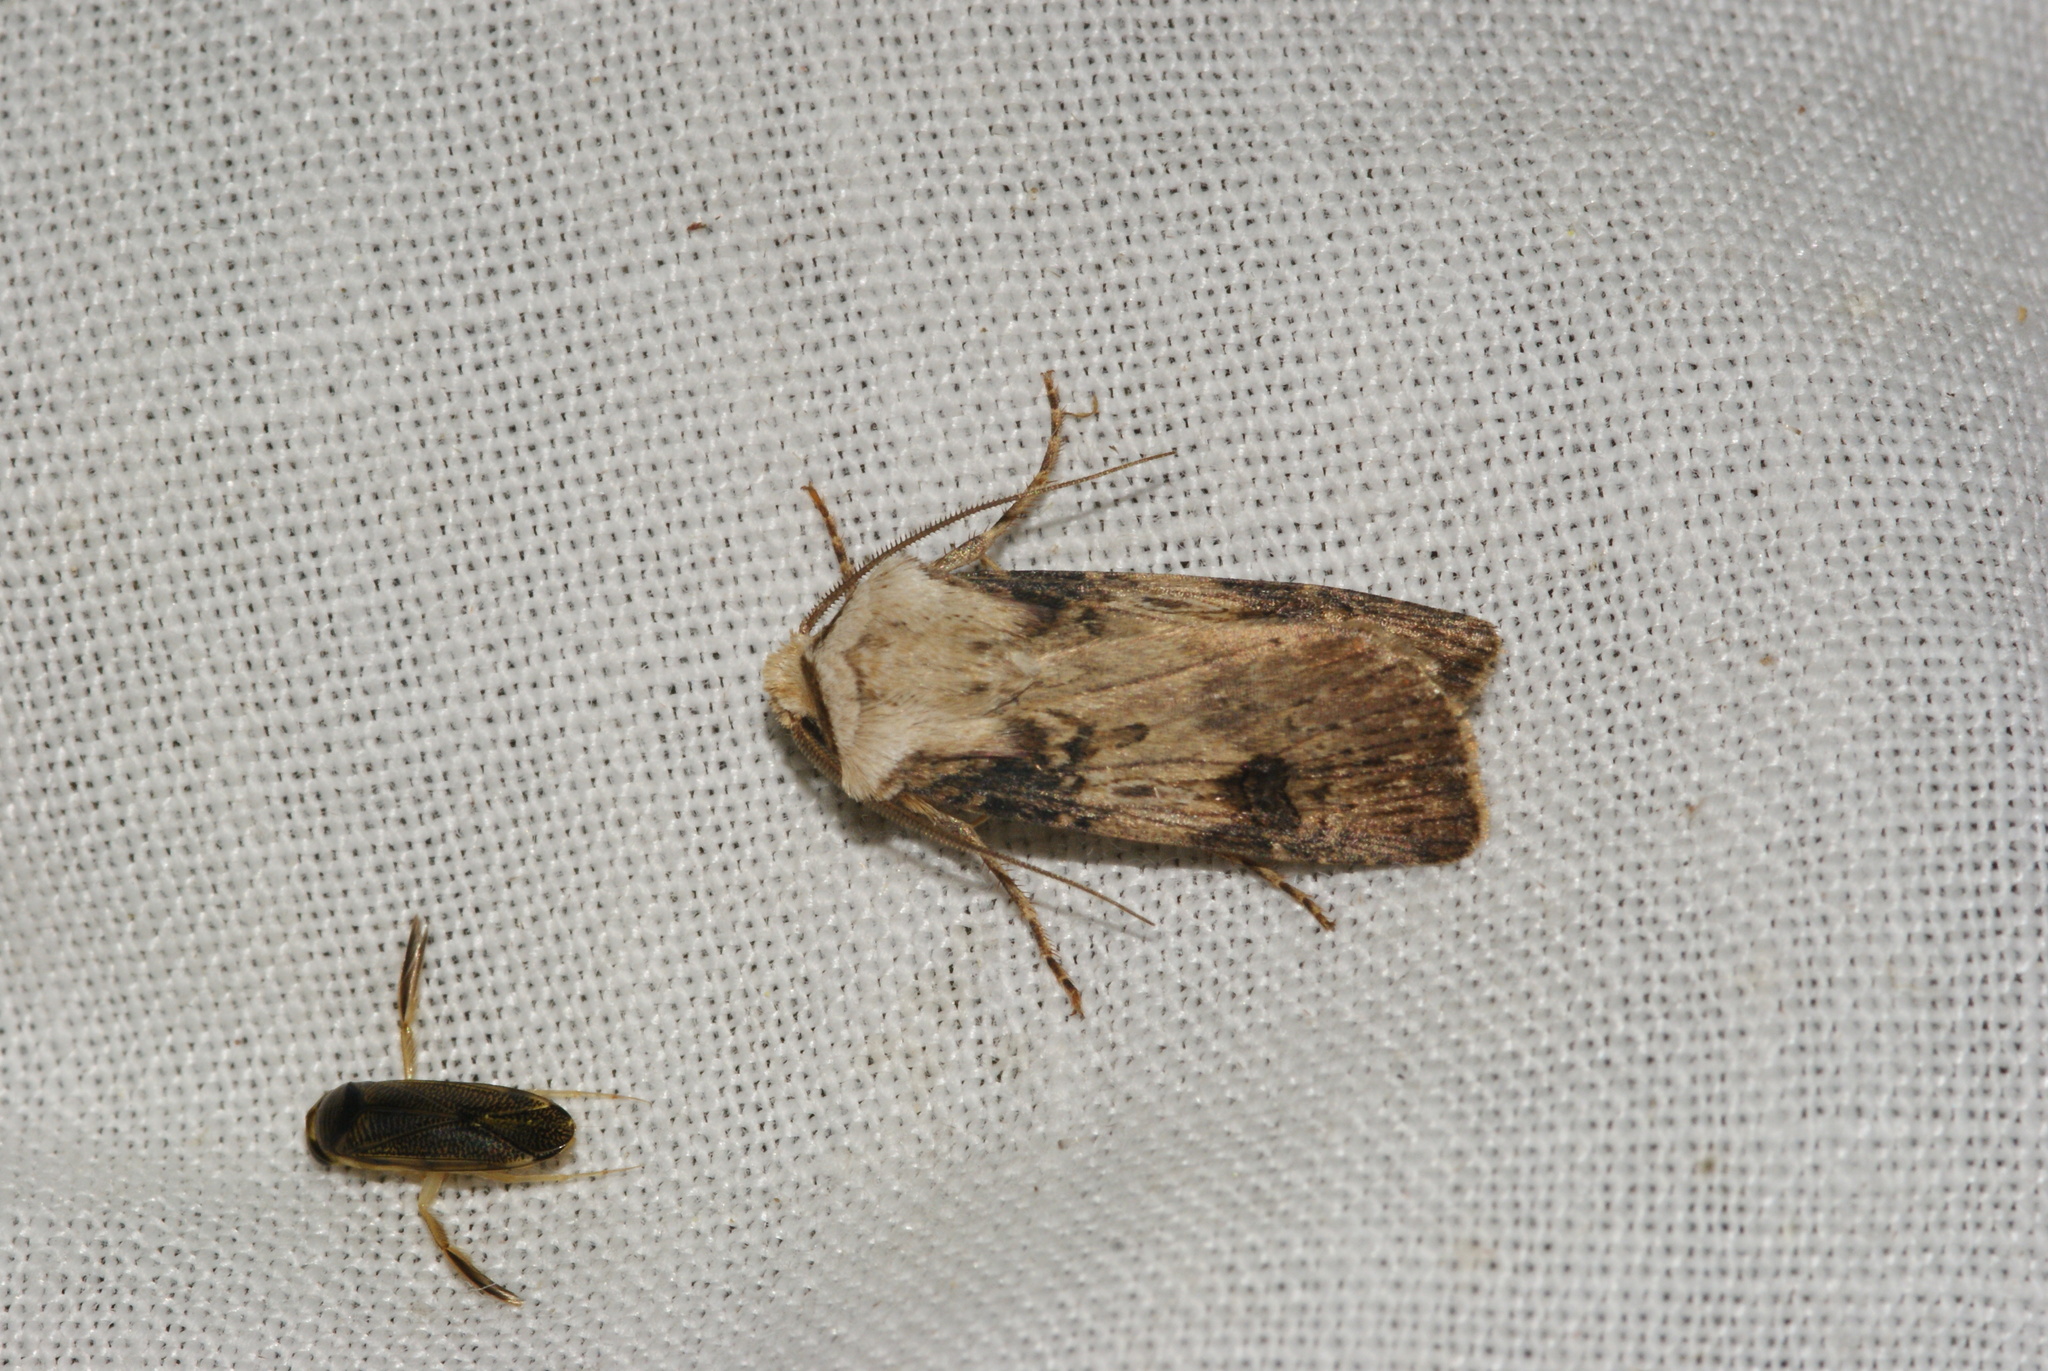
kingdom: Animalia
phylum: Arthropoda
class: Insecta
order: Lepidoptera
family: Noctuidae
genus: Agrotis
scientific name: Agrotis puta
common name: Shuttle-shaped dart
